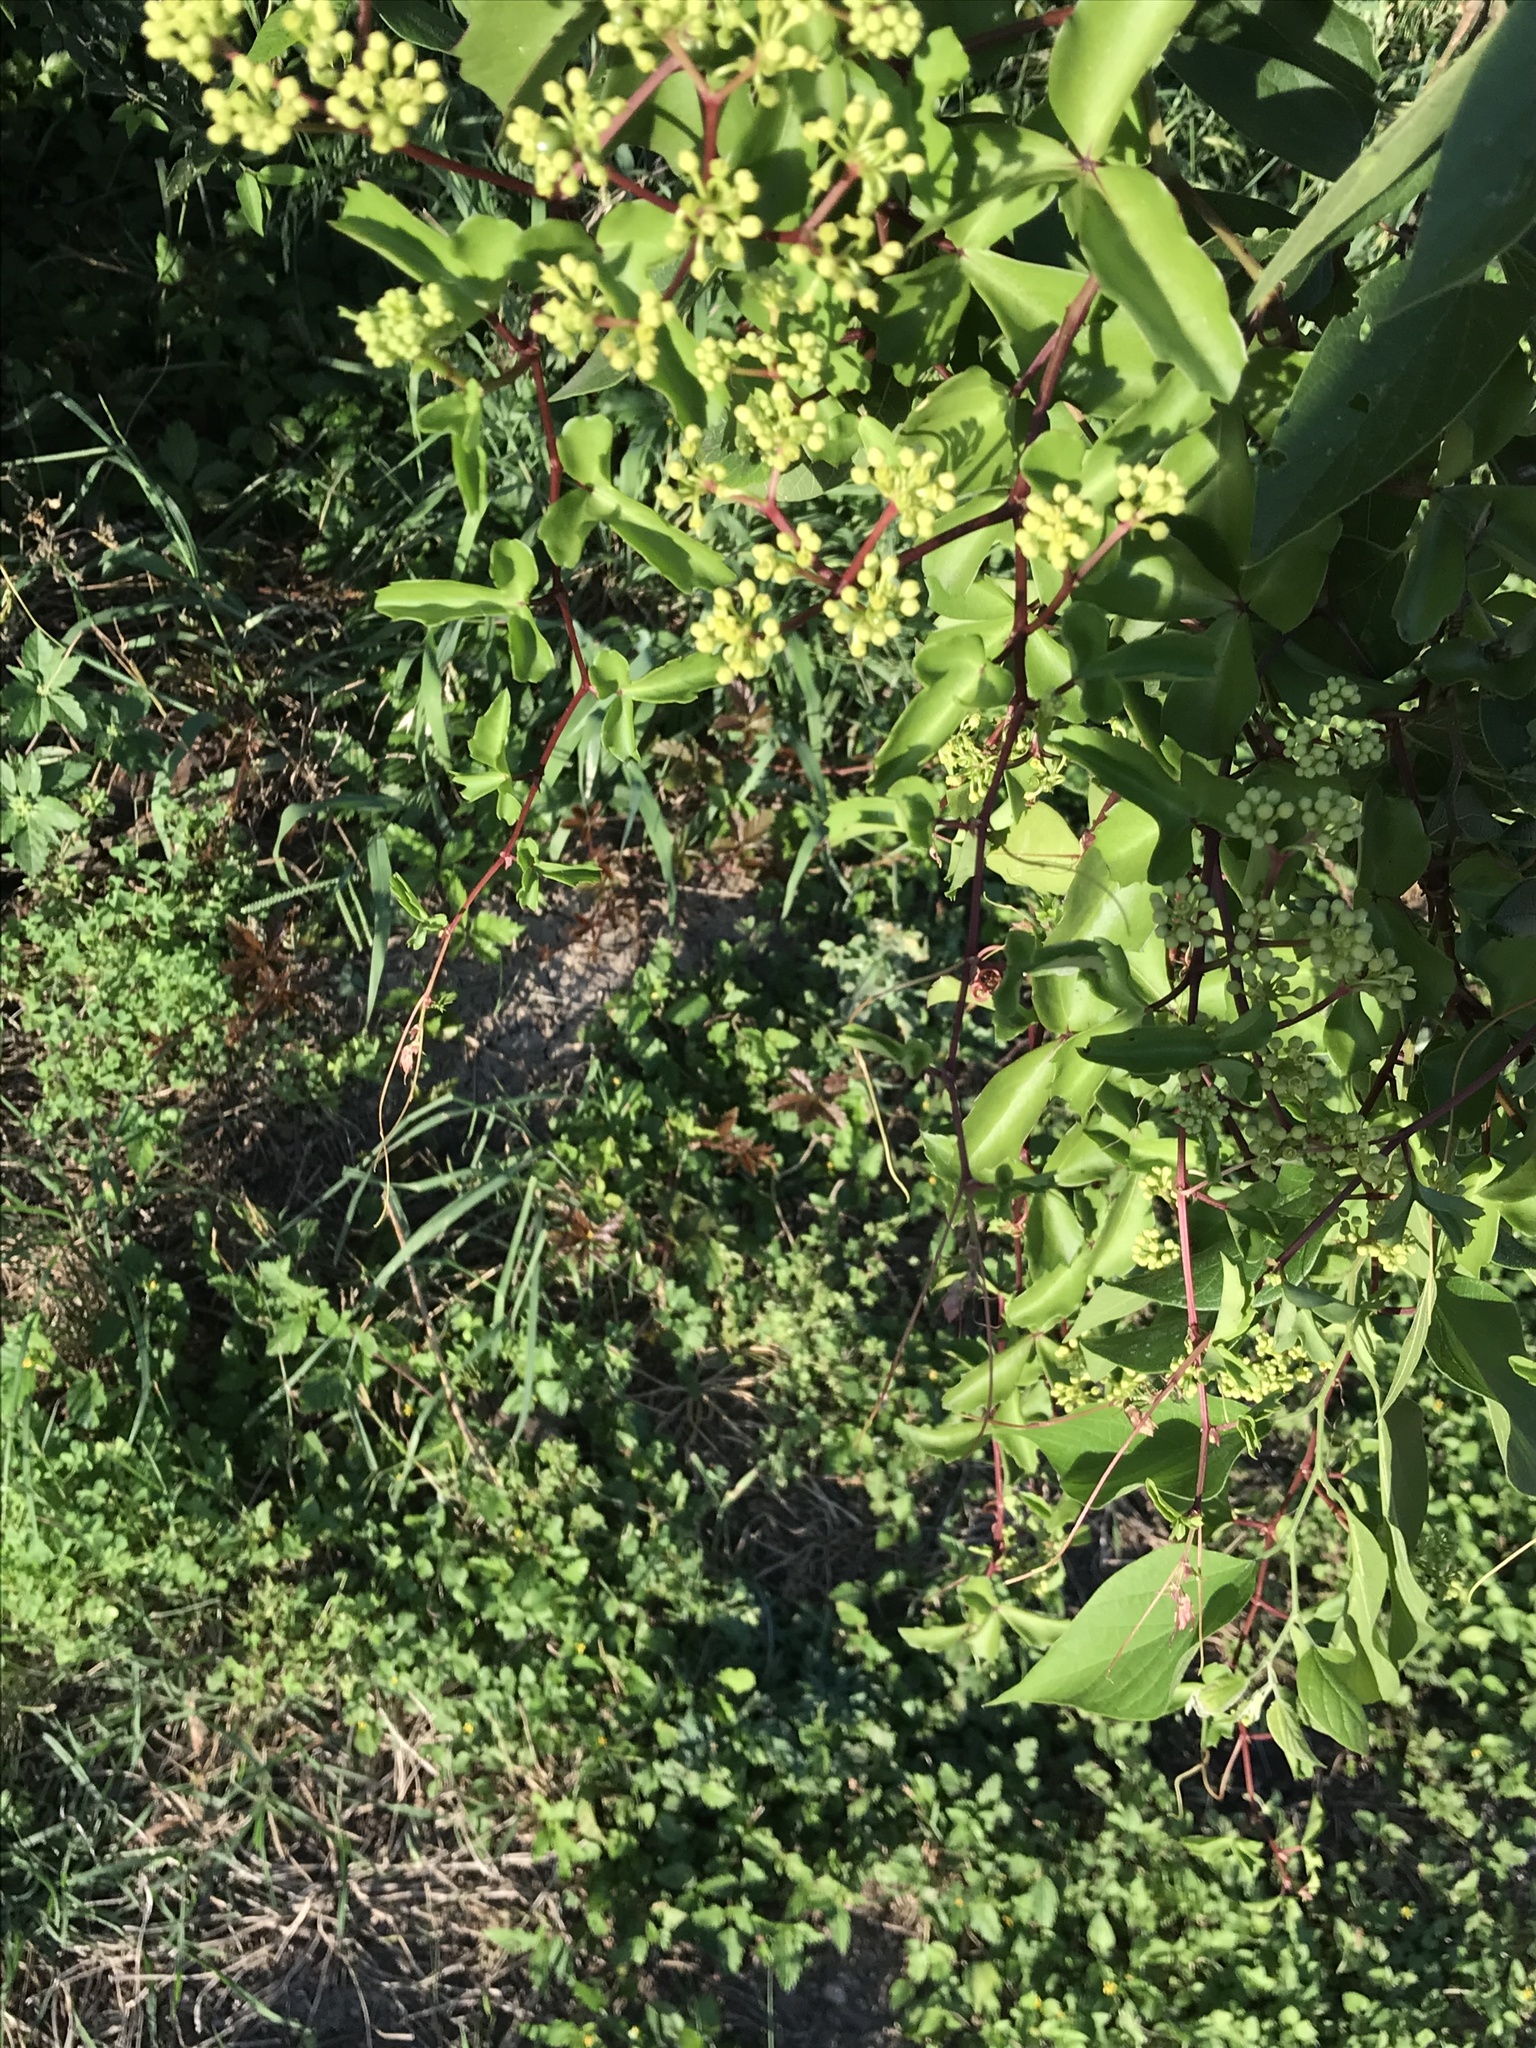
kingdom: Plantae
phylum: Tracheophyta
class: Magnoliopsida
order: Vitales
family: Vitaceae
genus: Cissus
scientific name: Cissus trifoliata
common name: Vine-sorrel
